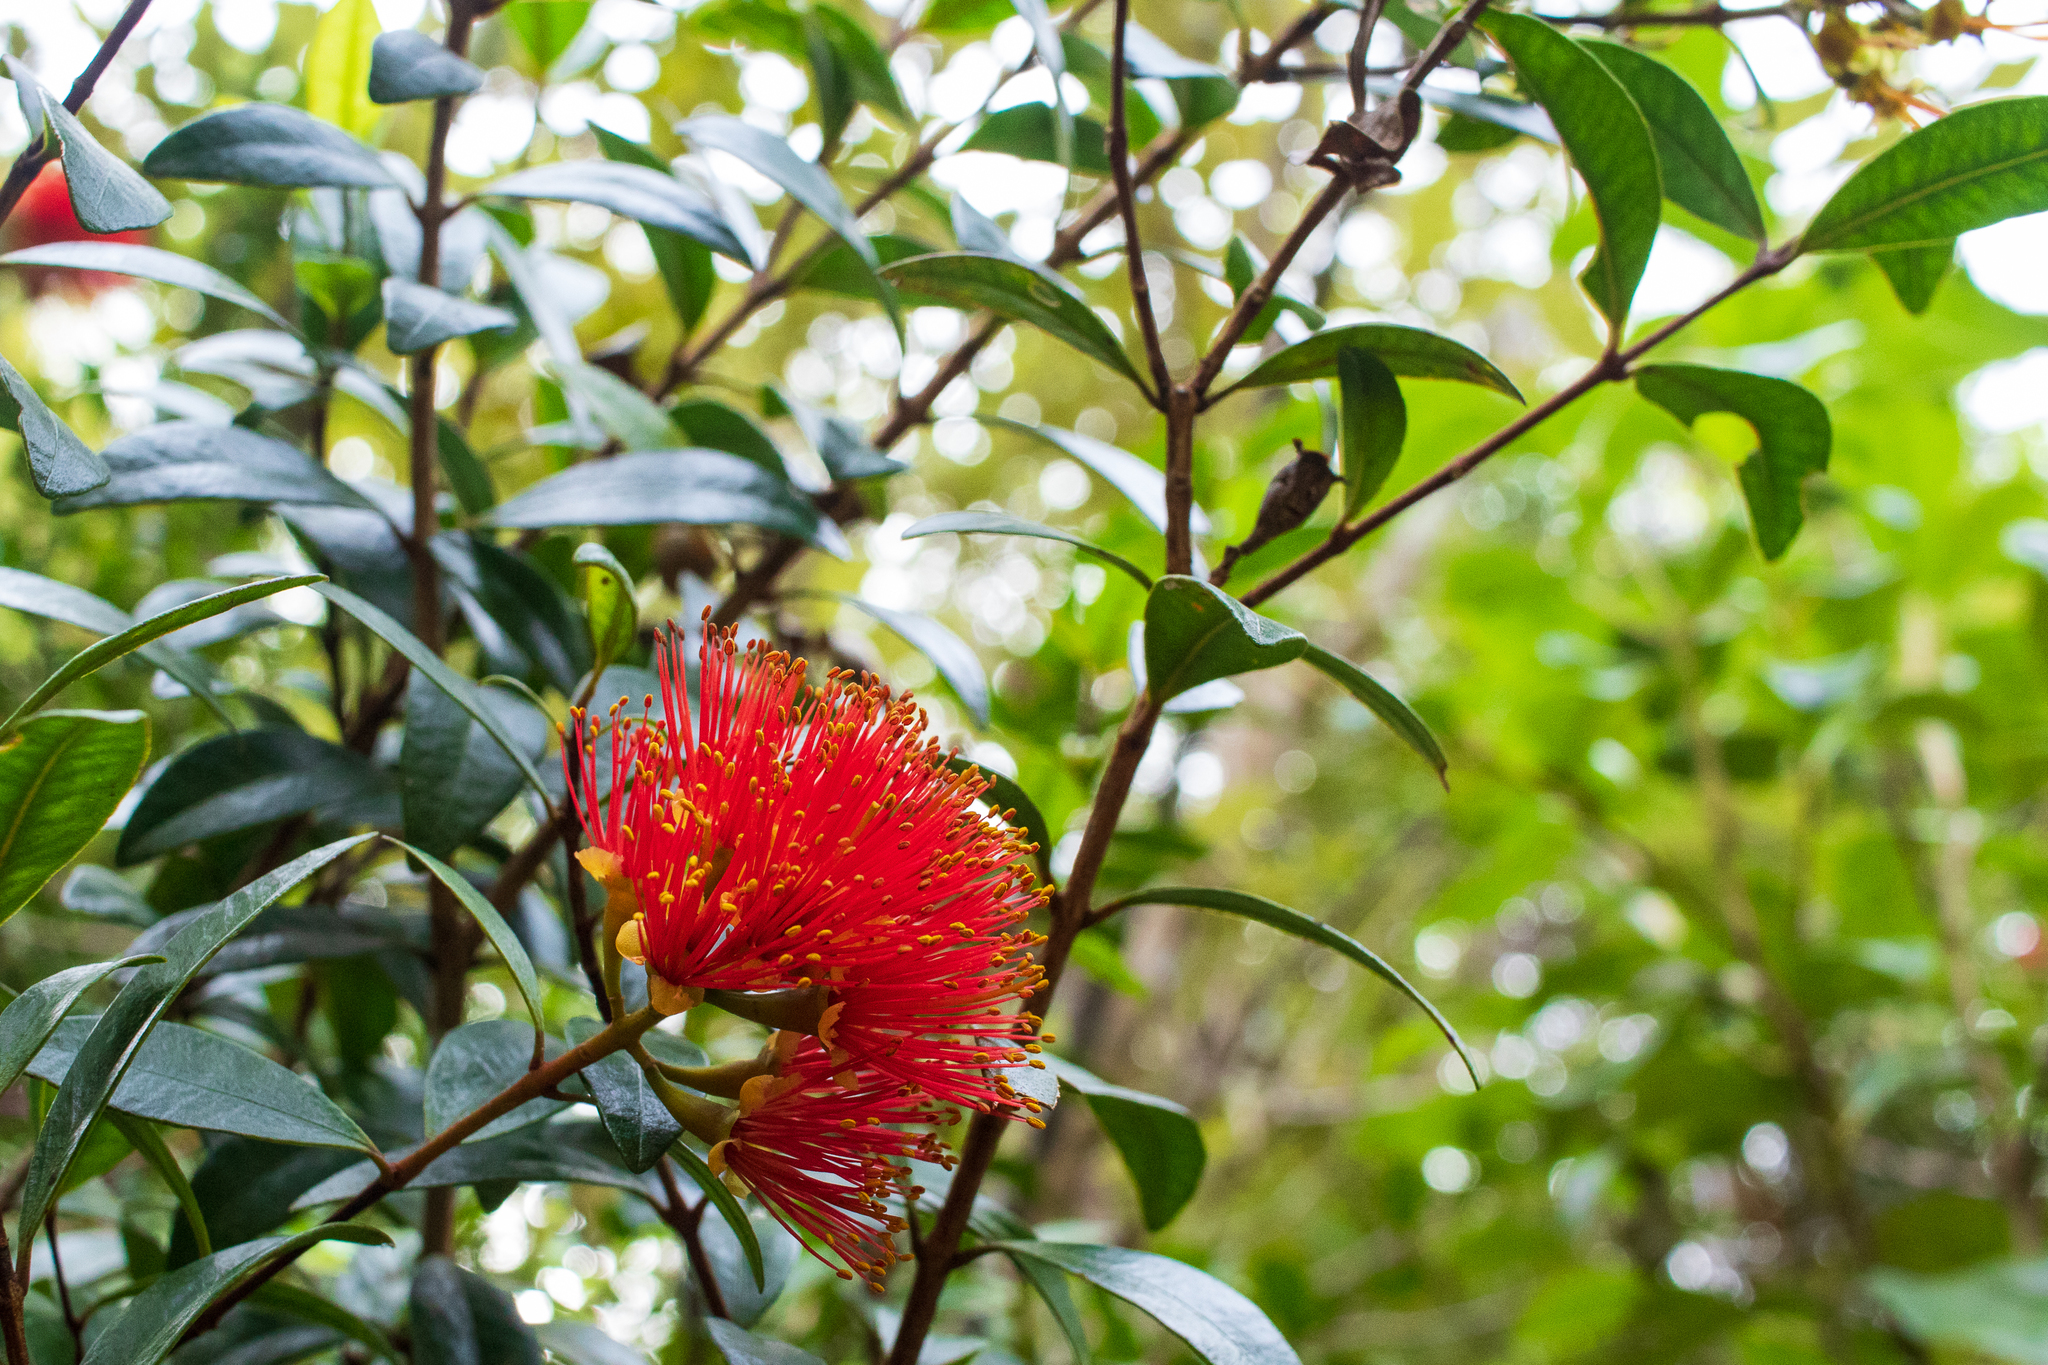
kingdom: Plantae
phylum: Tracheophyta
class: Magnoliopsida
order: Myrtales
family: Myrtaceae
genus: Metrosideros
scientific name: Metrosideros fulgens
